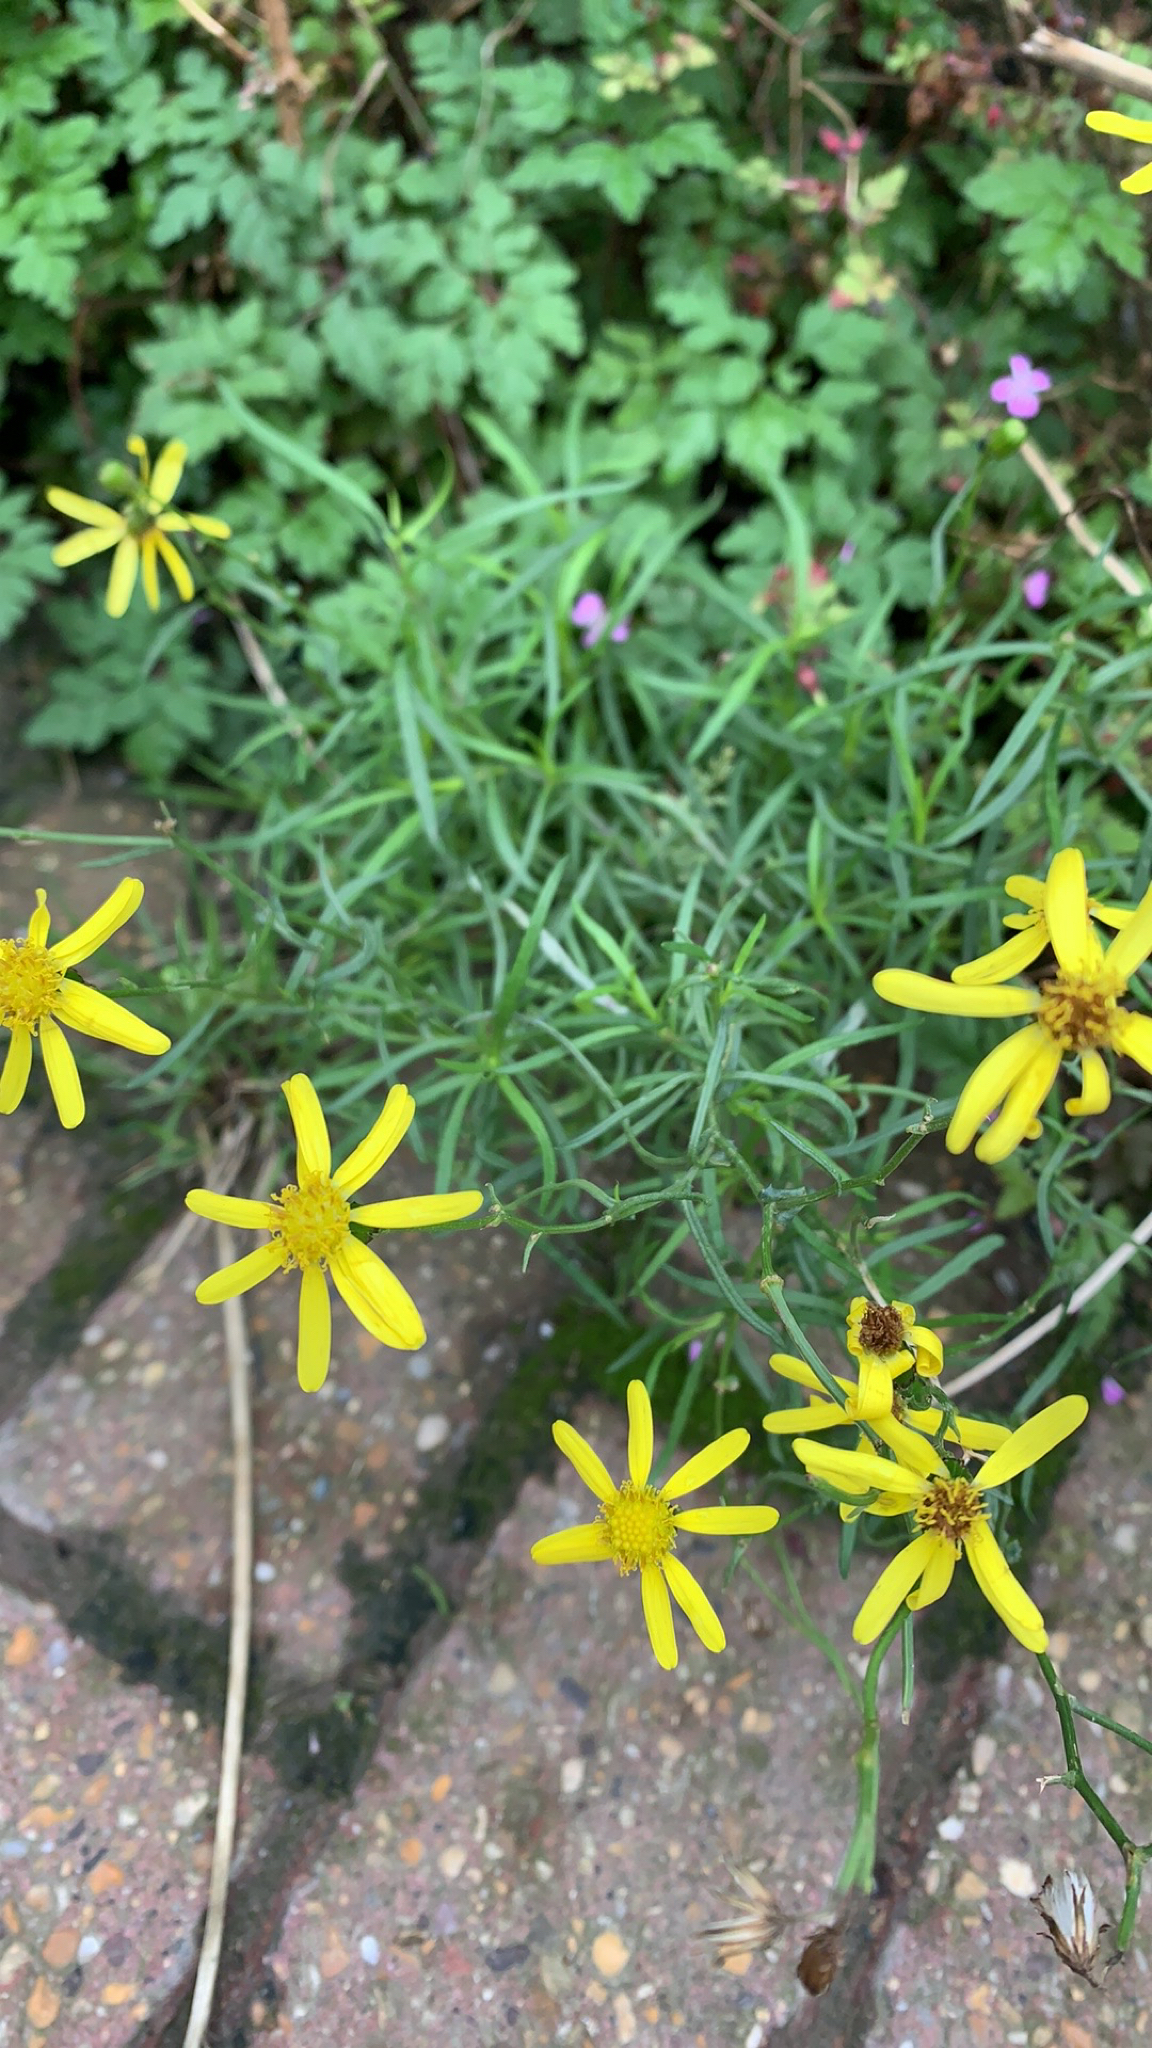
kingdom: Plantae
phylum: Tracheophyta
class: Magnoliopsida
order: Asterales
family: Asteraceae
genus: Senecio
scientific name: Senecio inaequidens
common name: Narrow-leaved ragwort
